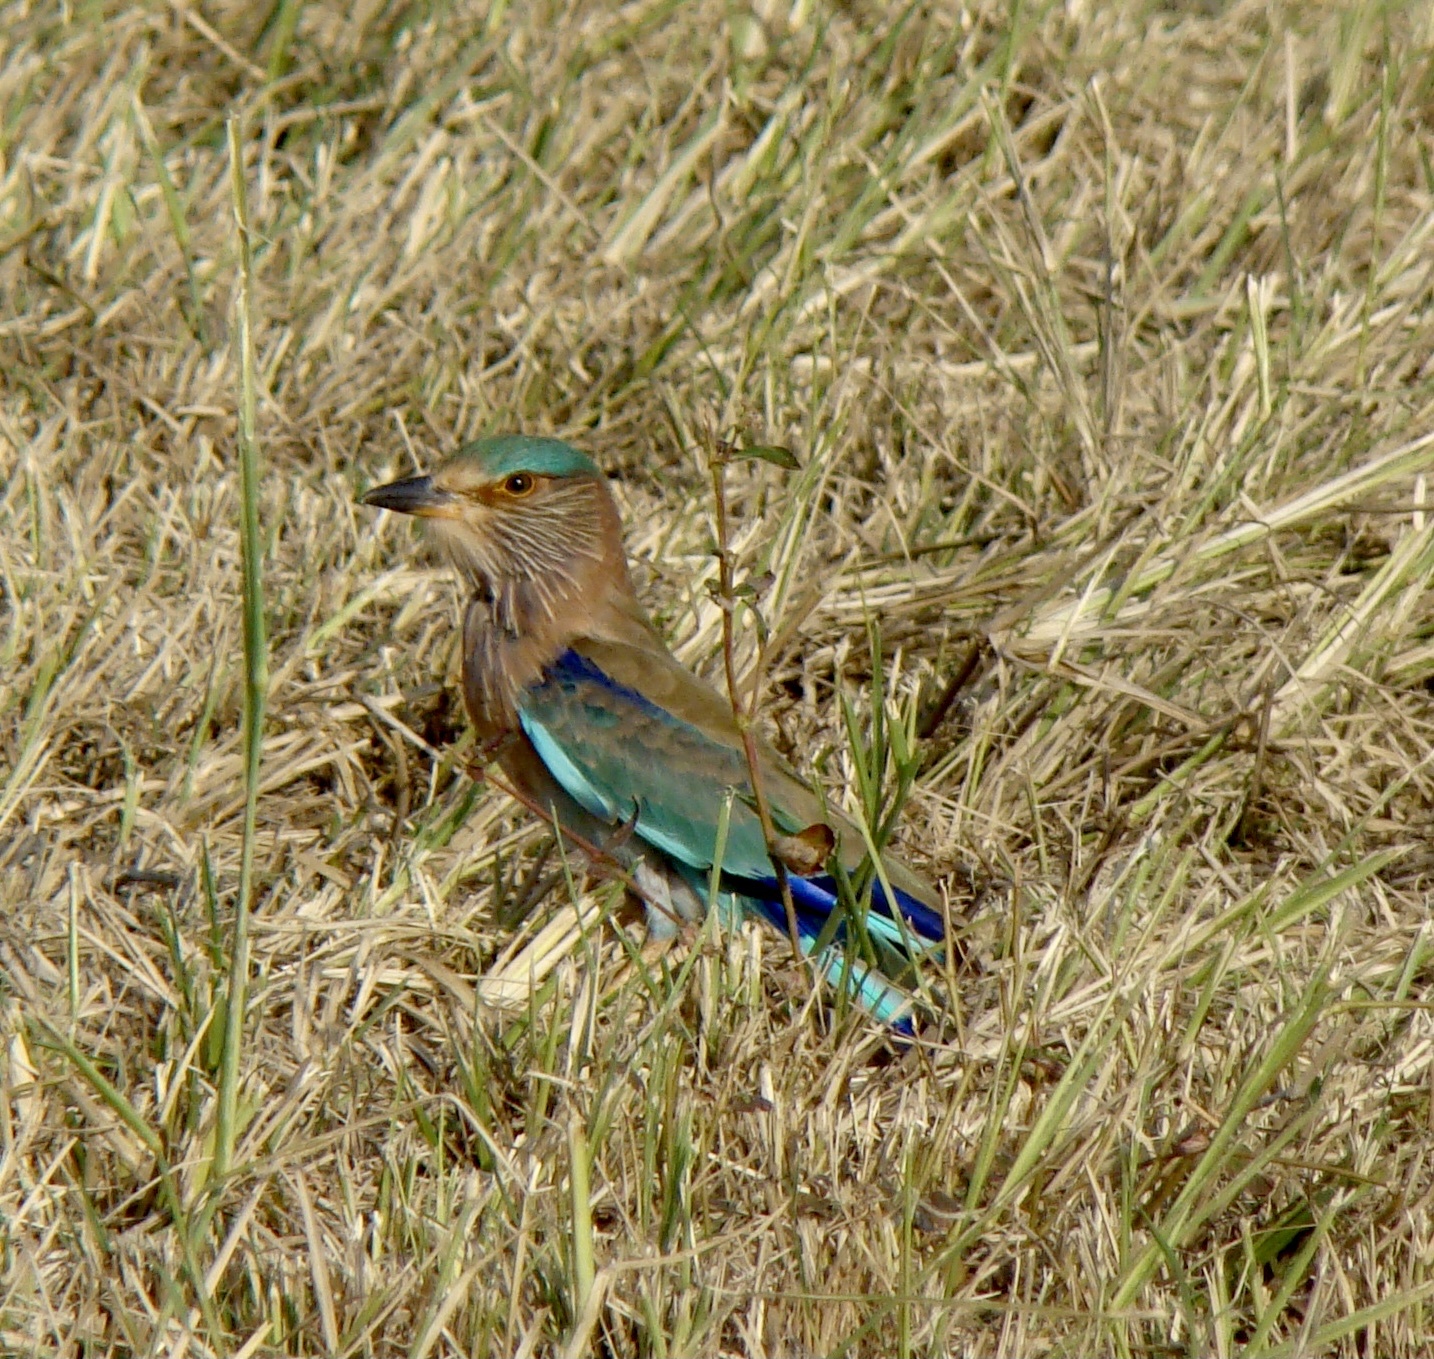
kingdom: Animalia
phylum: Chordata
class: Aves
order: Coraciiformes
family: Coraciidae
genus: Coracias
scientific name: Coracias benghalensis
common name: Indian roller
